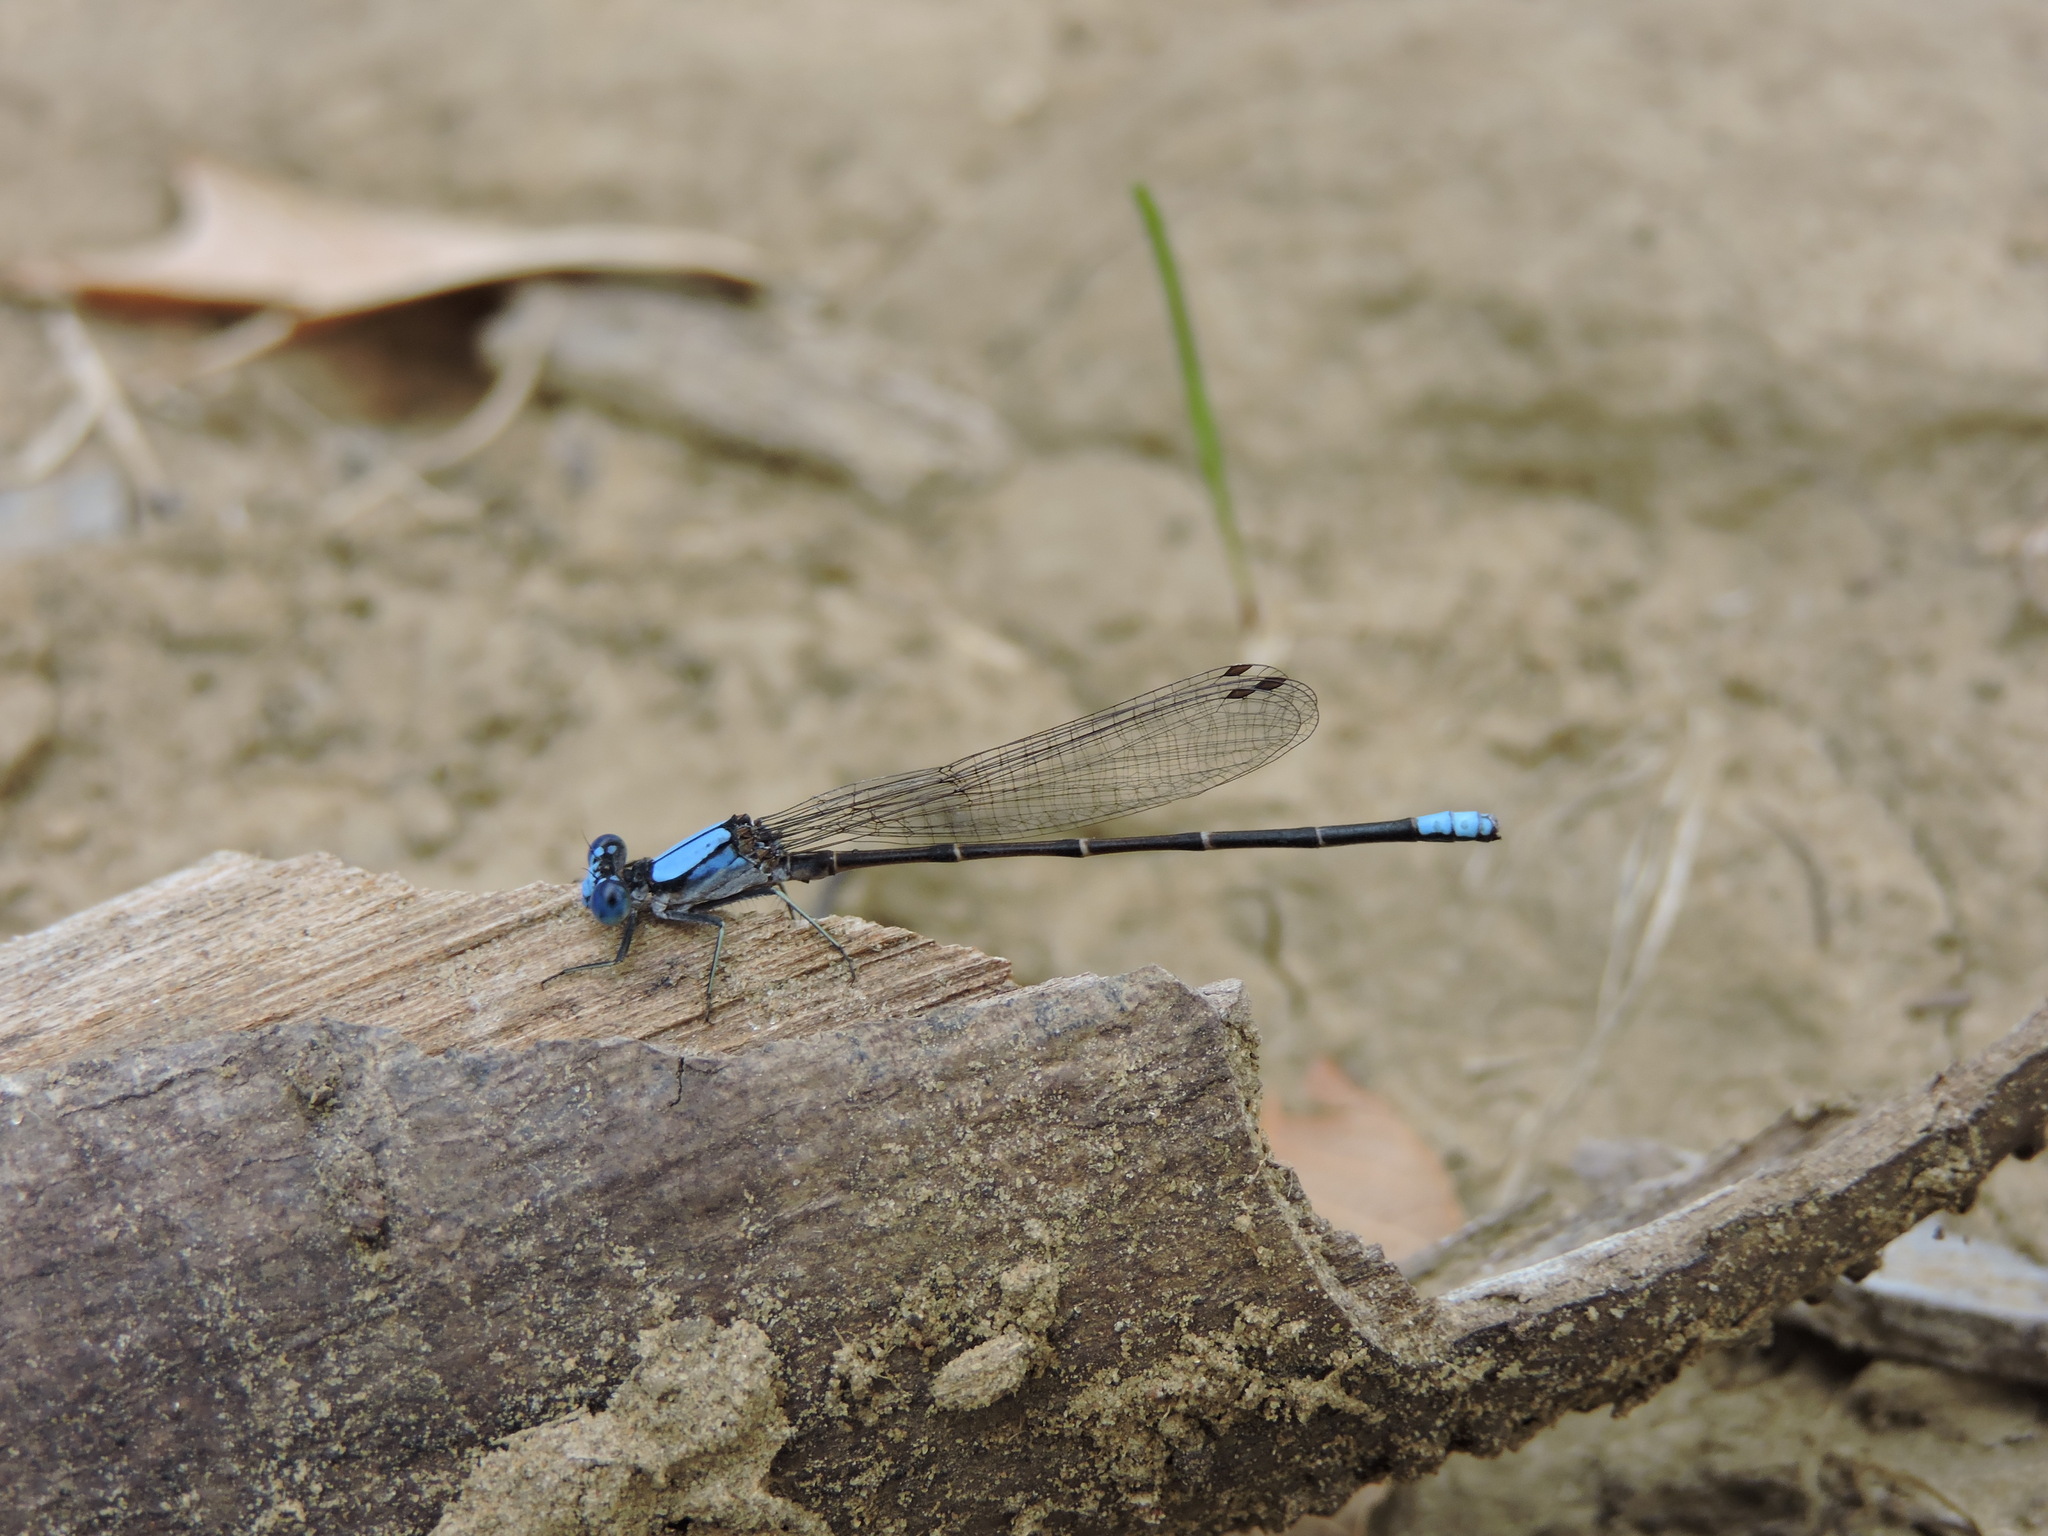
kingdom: Animalia
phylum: Arthropoda
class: Insecta
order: Odonata
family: Coenagrionidae
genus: Argia
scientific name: Argia apicalis
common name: Blue-fronted dancer
